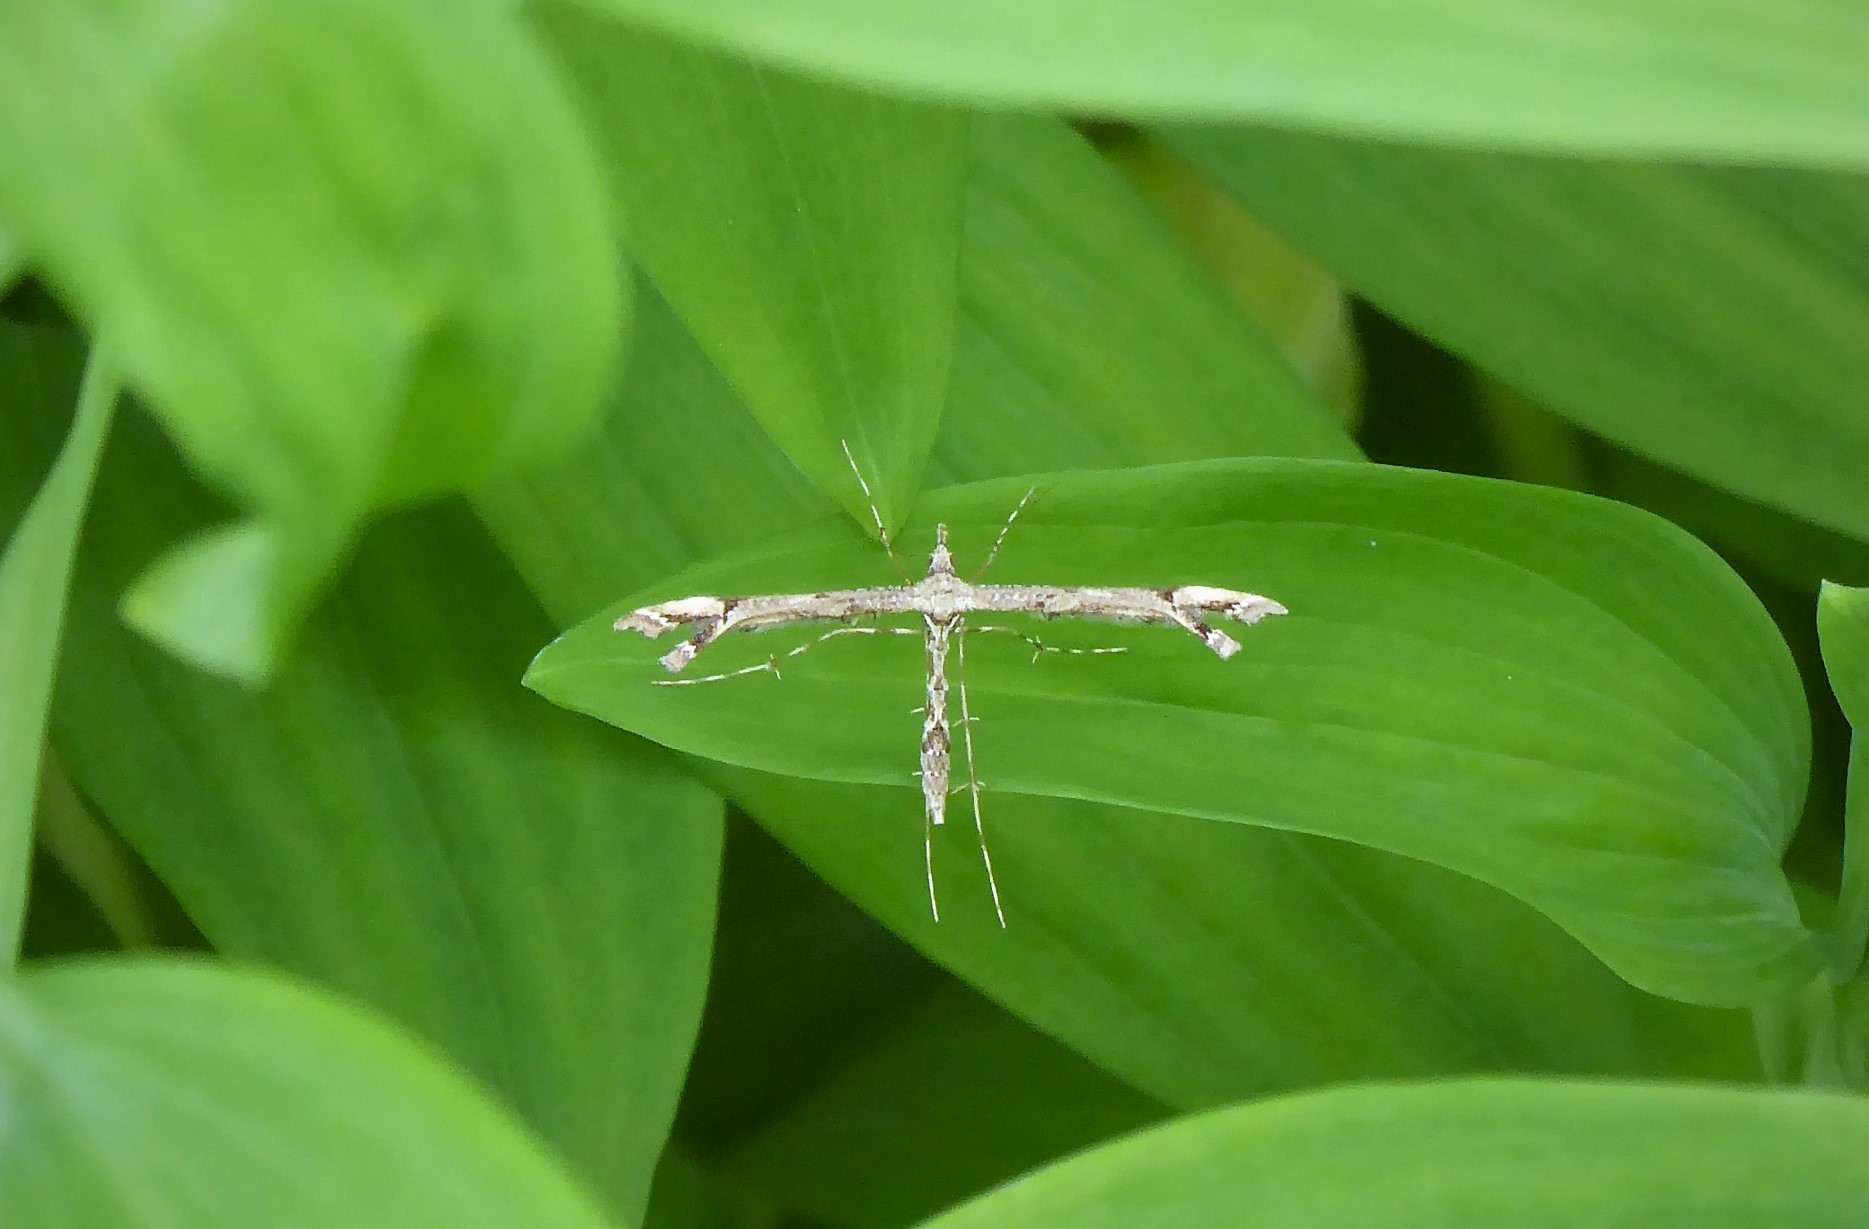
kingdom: Animalia
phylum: Arthropoda
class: Insecta
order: Lepidoptera
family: Pterophoridae
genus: Amblyptilia
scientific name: Amblyptilia repletalis
